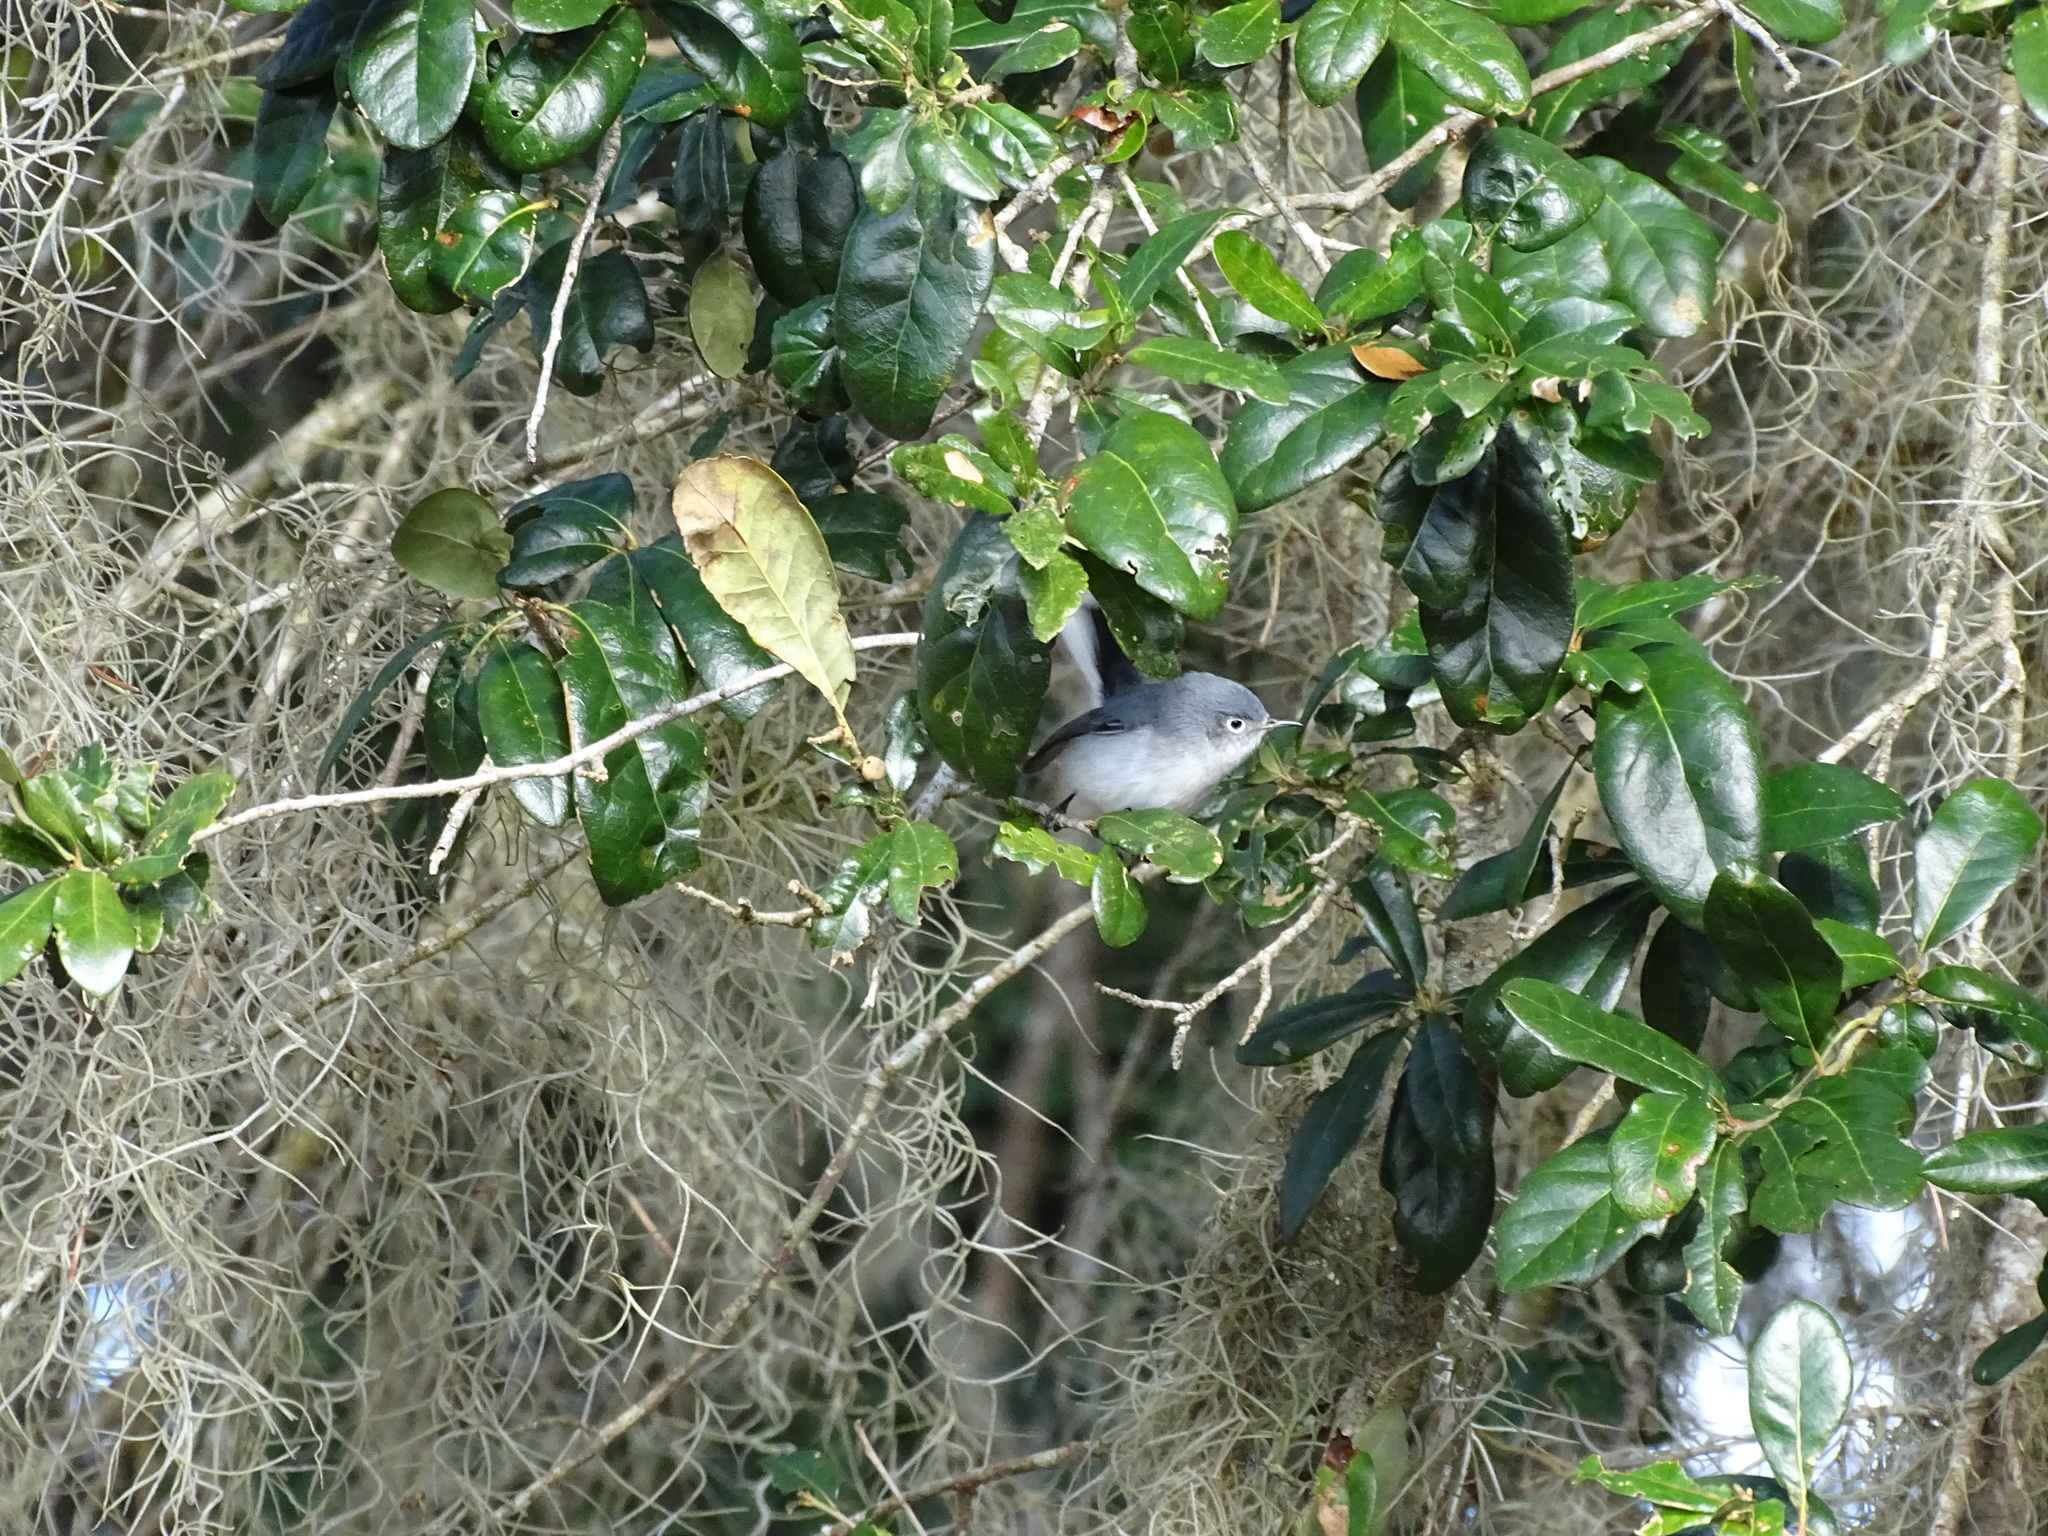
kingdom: Animalia
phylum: Chordata
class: Aves
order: Passeriformes
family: Polioptilidae
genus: Polioptila
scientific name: Polioptila caerulea
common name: Blue-gray gnatcatcher
